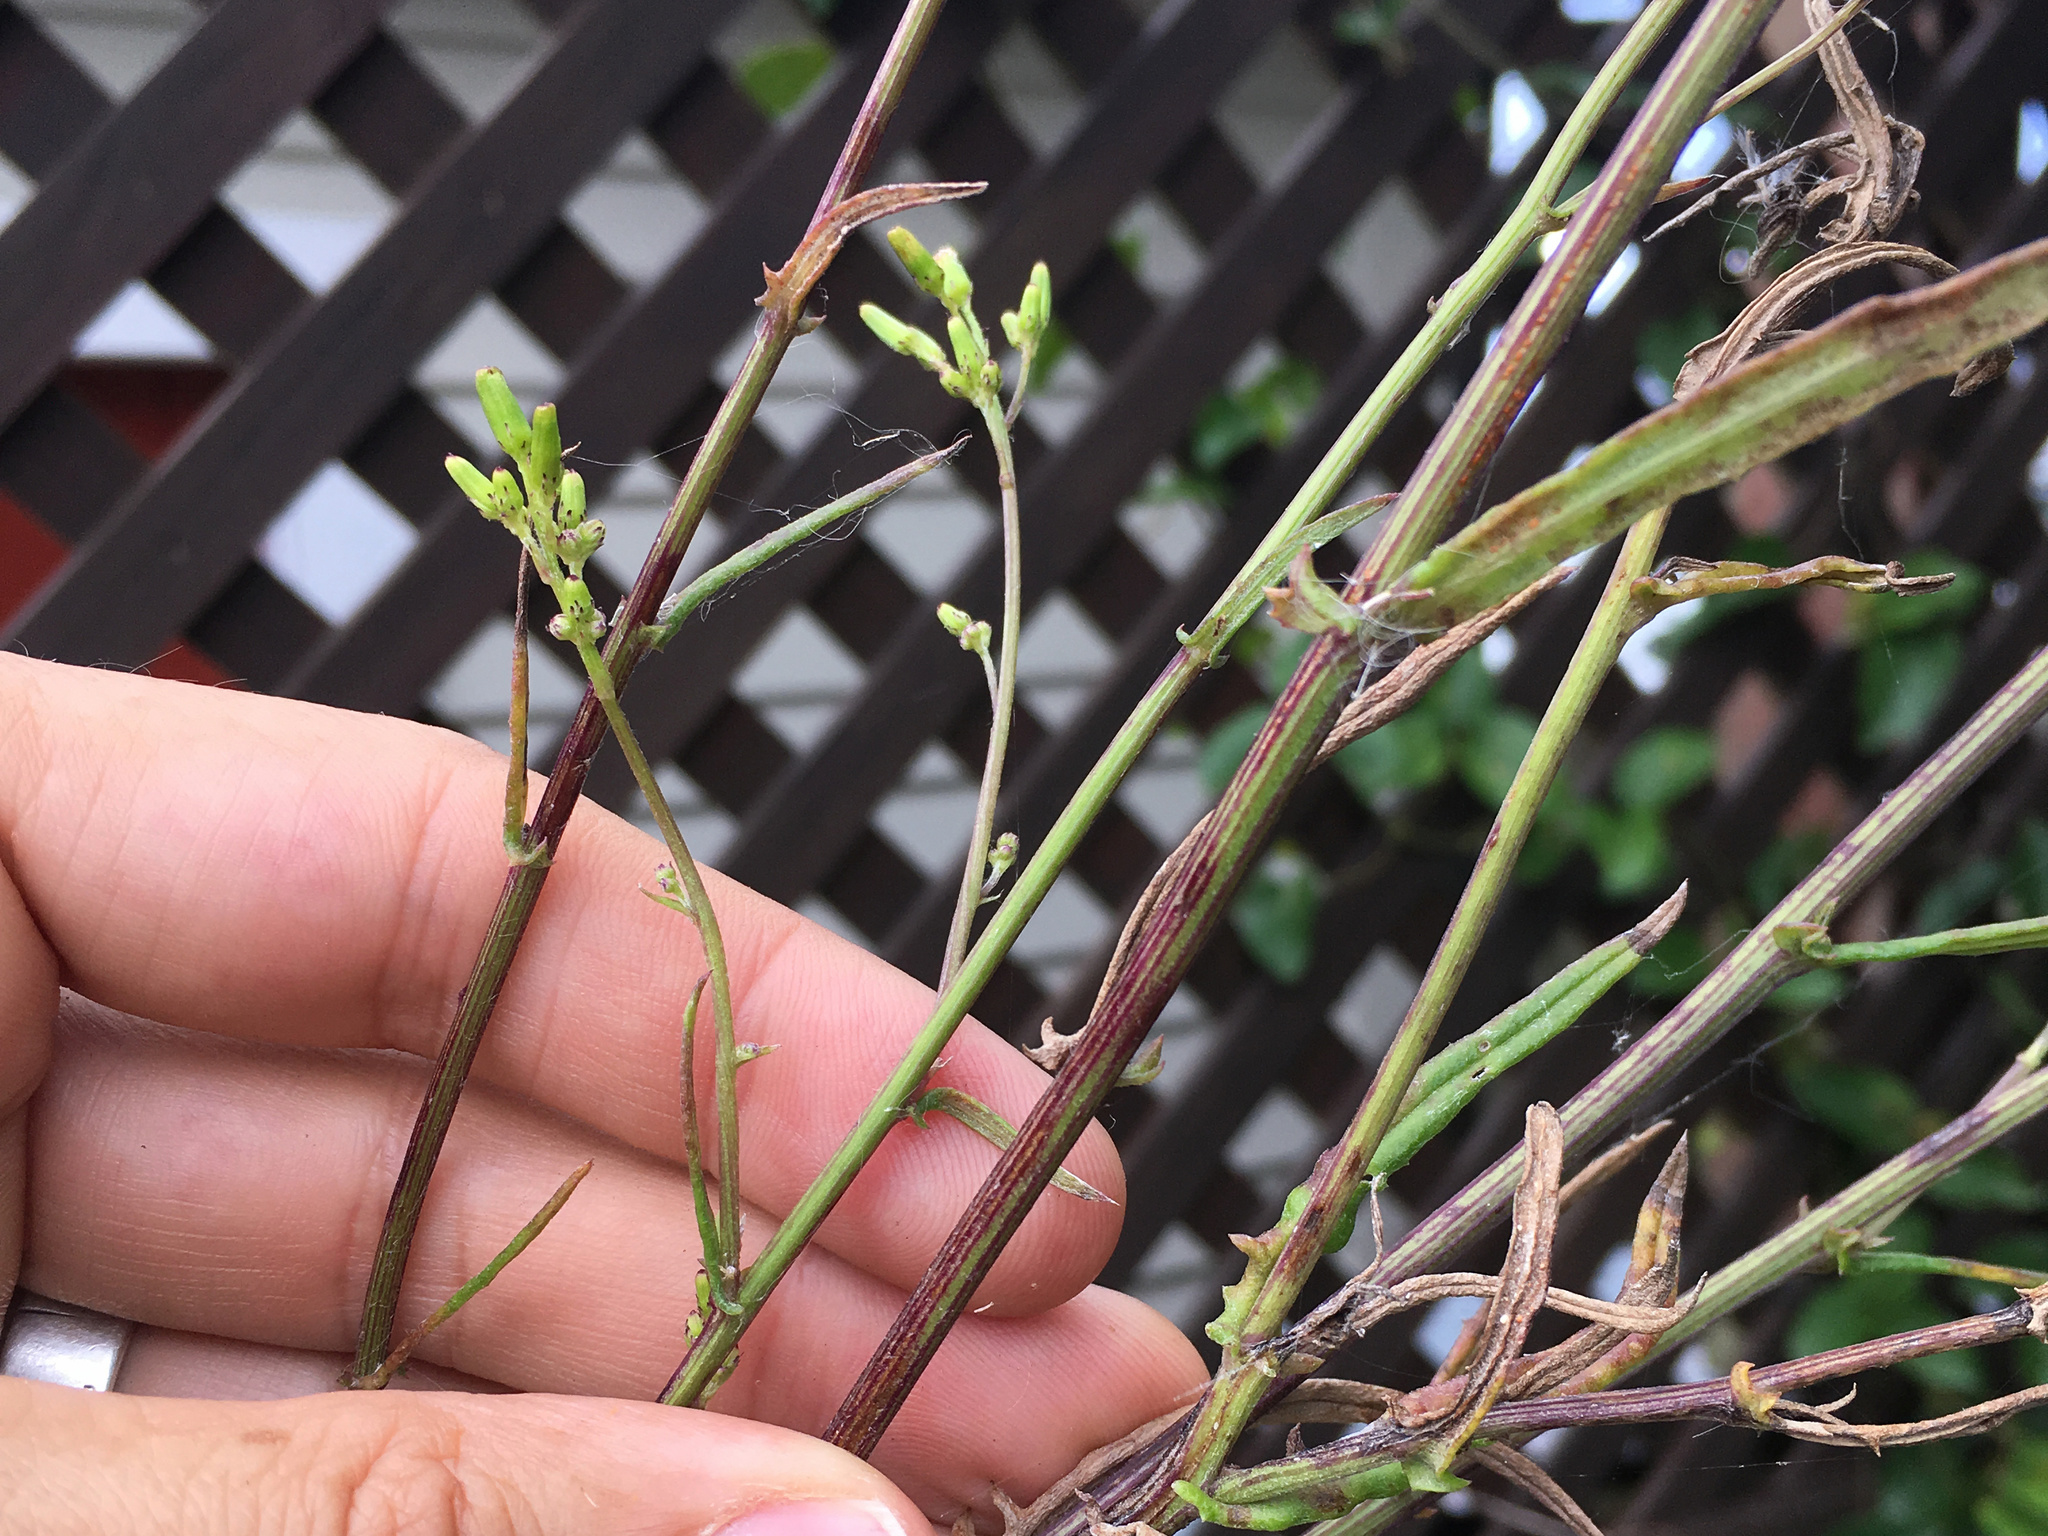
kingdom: Fungi
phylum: Basidiomycota
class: Pucciniomycetes
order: Pucciniales
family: Coleosporiaceae
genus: Coleosporium
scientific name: Coleosporium tussilaginis
